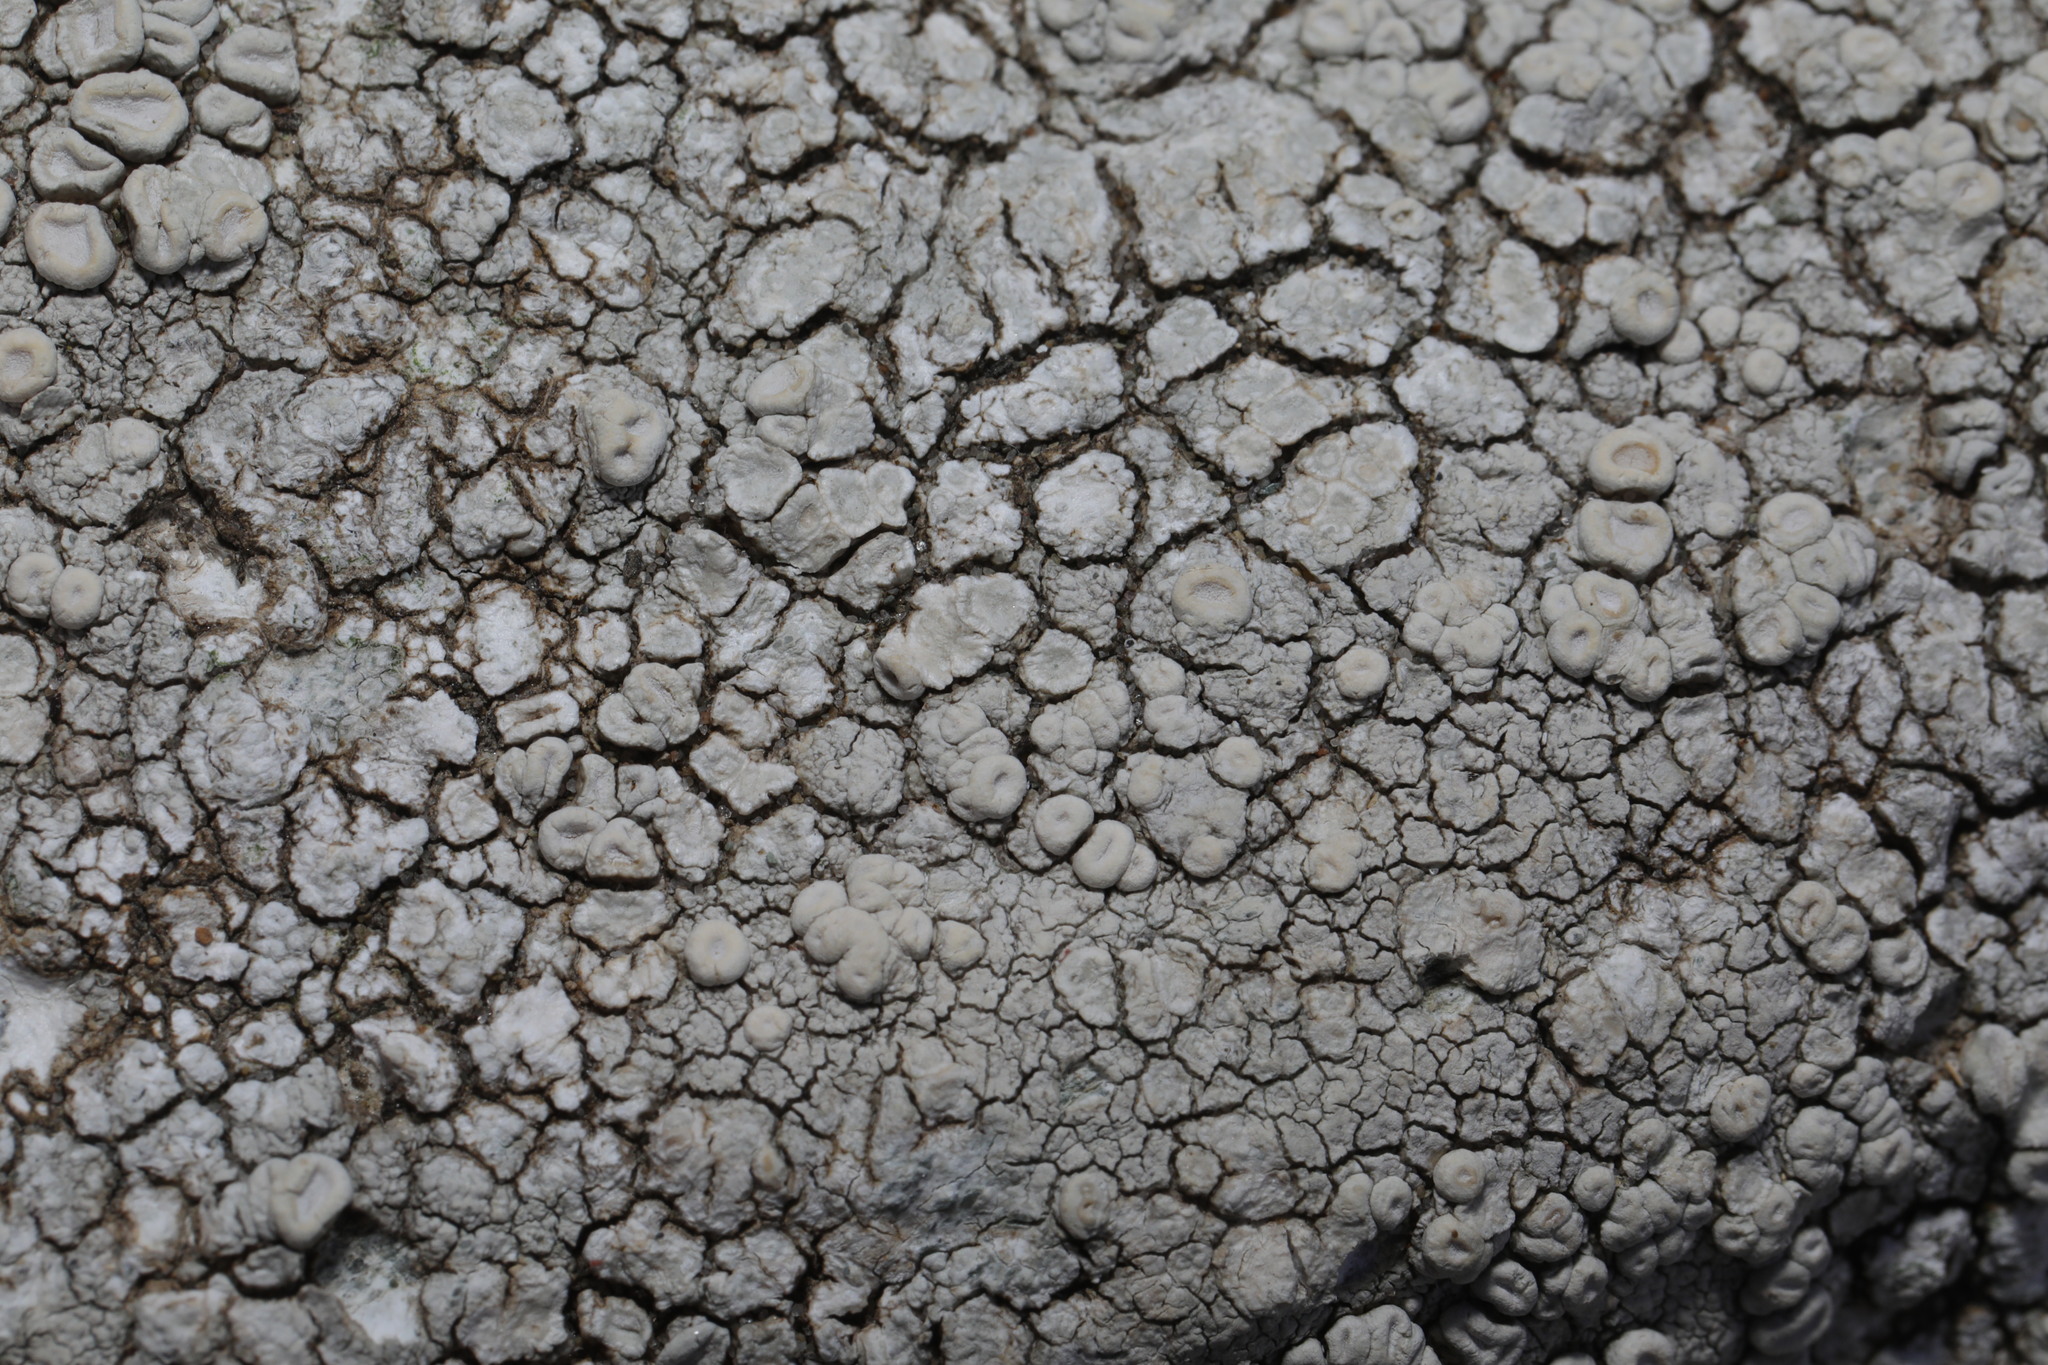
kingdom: Fungi
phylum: Ascomycota
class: Lecanoromycetes
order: Pertusariales
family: Ochrolechiaceae
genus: Ochrolechia
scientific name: Ochrolechia parella
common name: Crab's eye lichen
